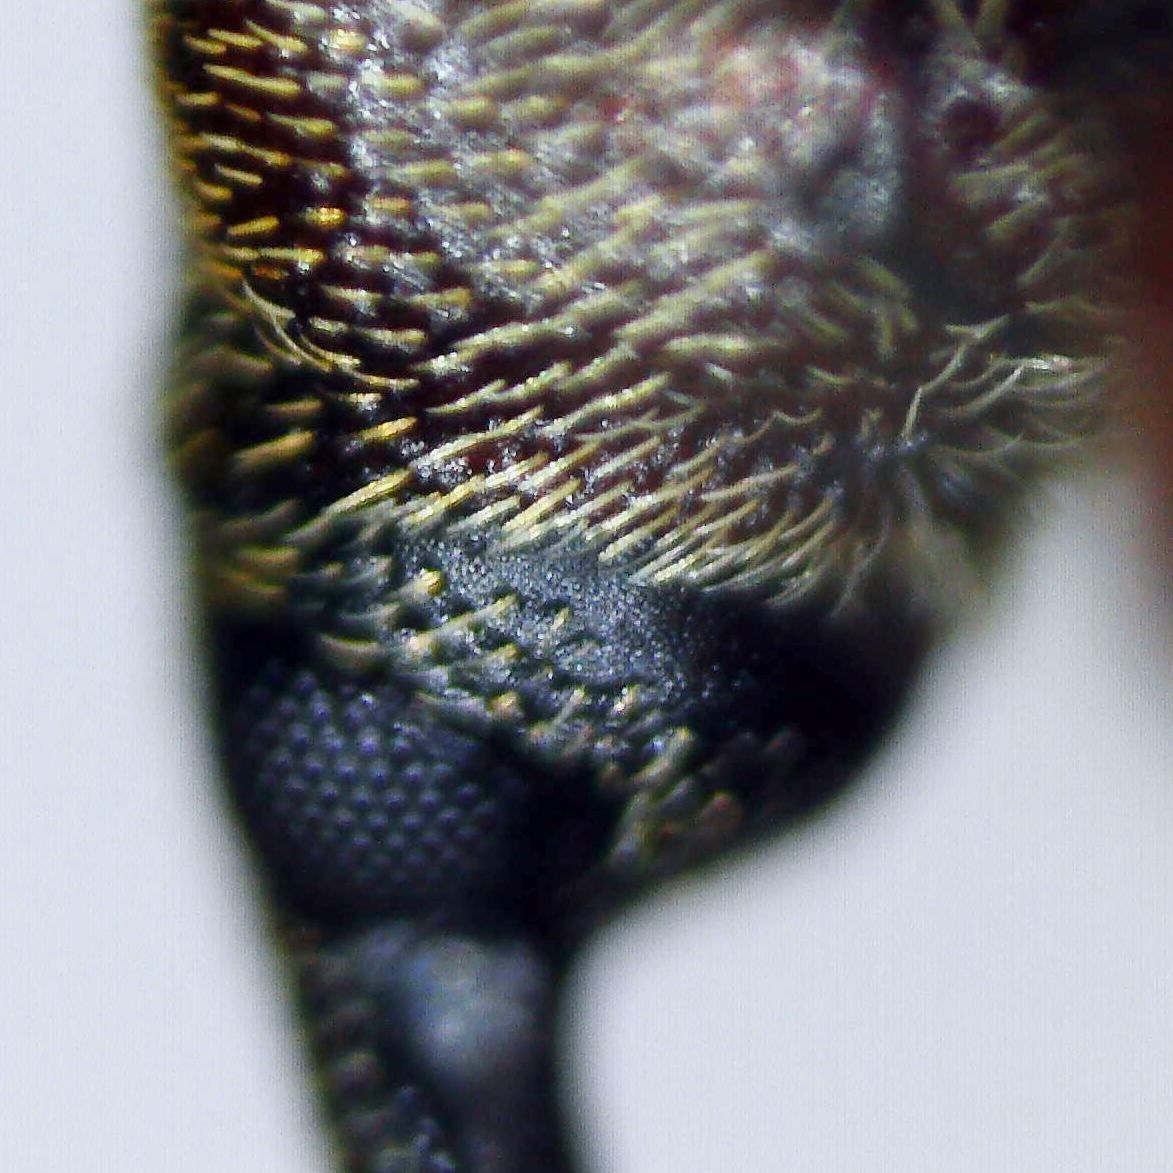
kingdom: Animalia
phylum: Arthropoda
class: Insecta
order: Coleoptera
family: Curculionidae
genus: Dorytomus
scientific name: Dorytomus taeniatus
